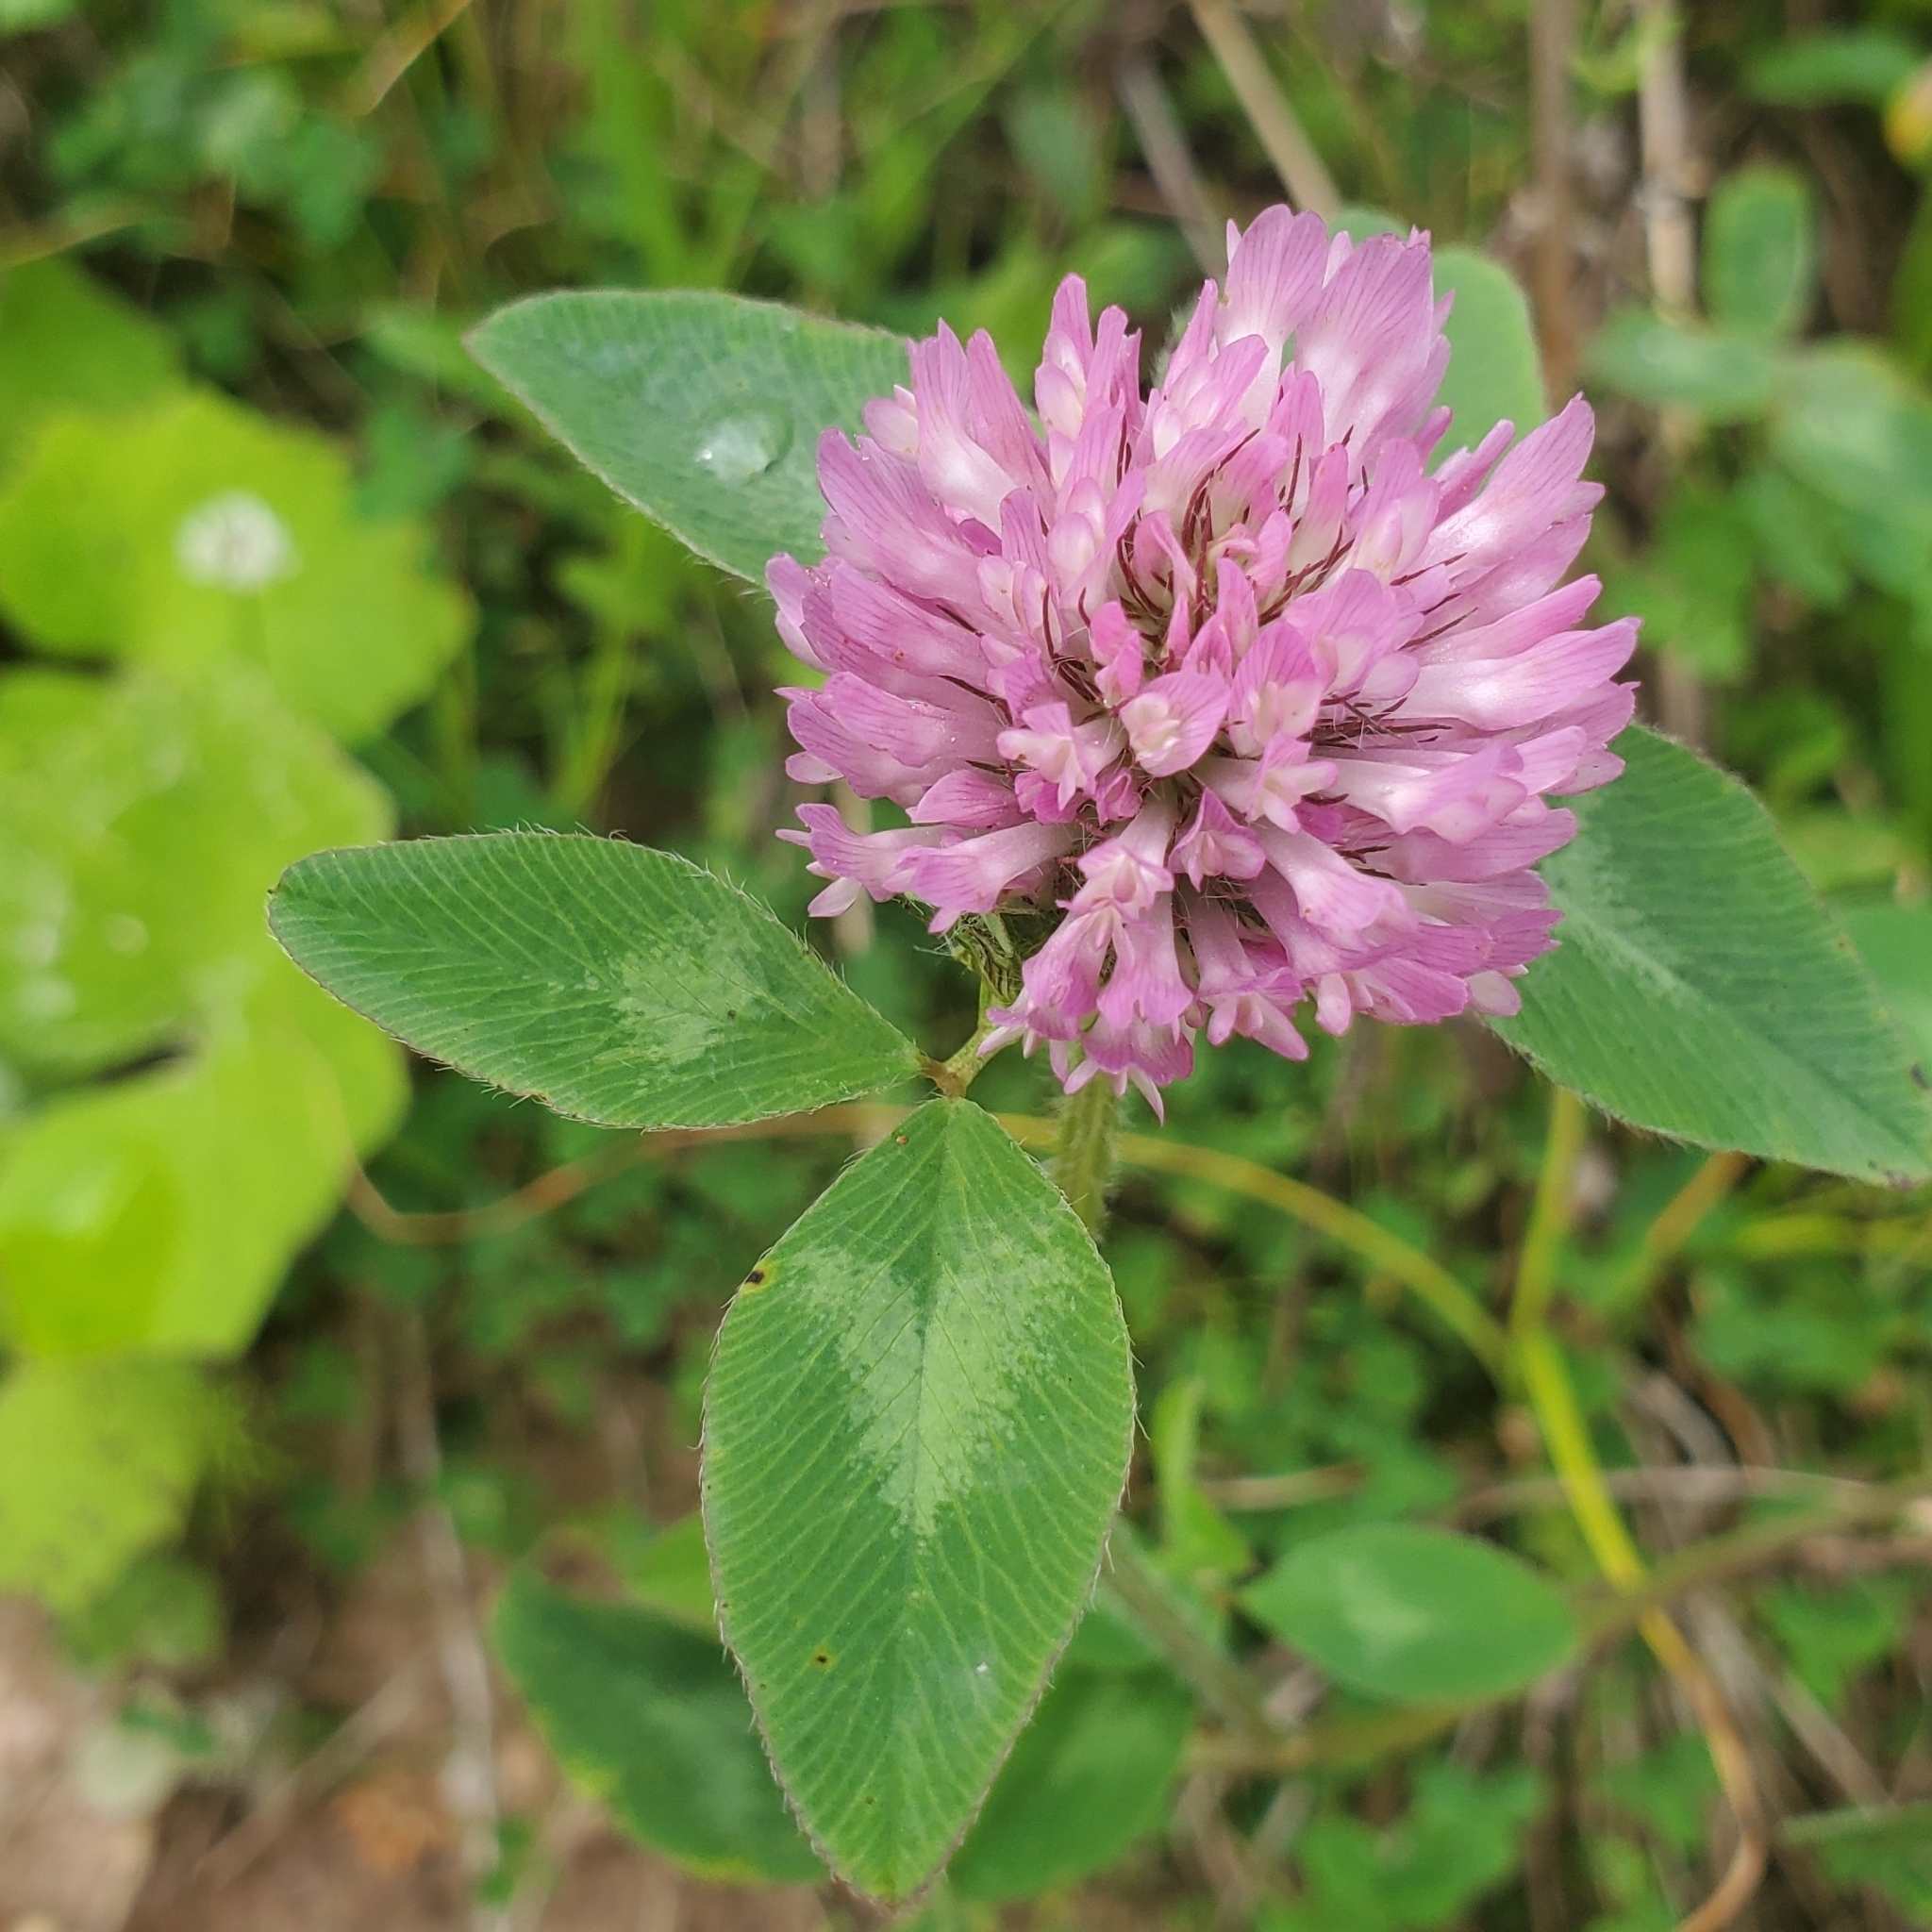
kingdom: Plantae
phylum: Tracheophyta
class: Magnoliopsida
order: Fabales
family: Fabaceae
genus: Trifolium
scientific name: Trifolium pratense
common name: Red clover
